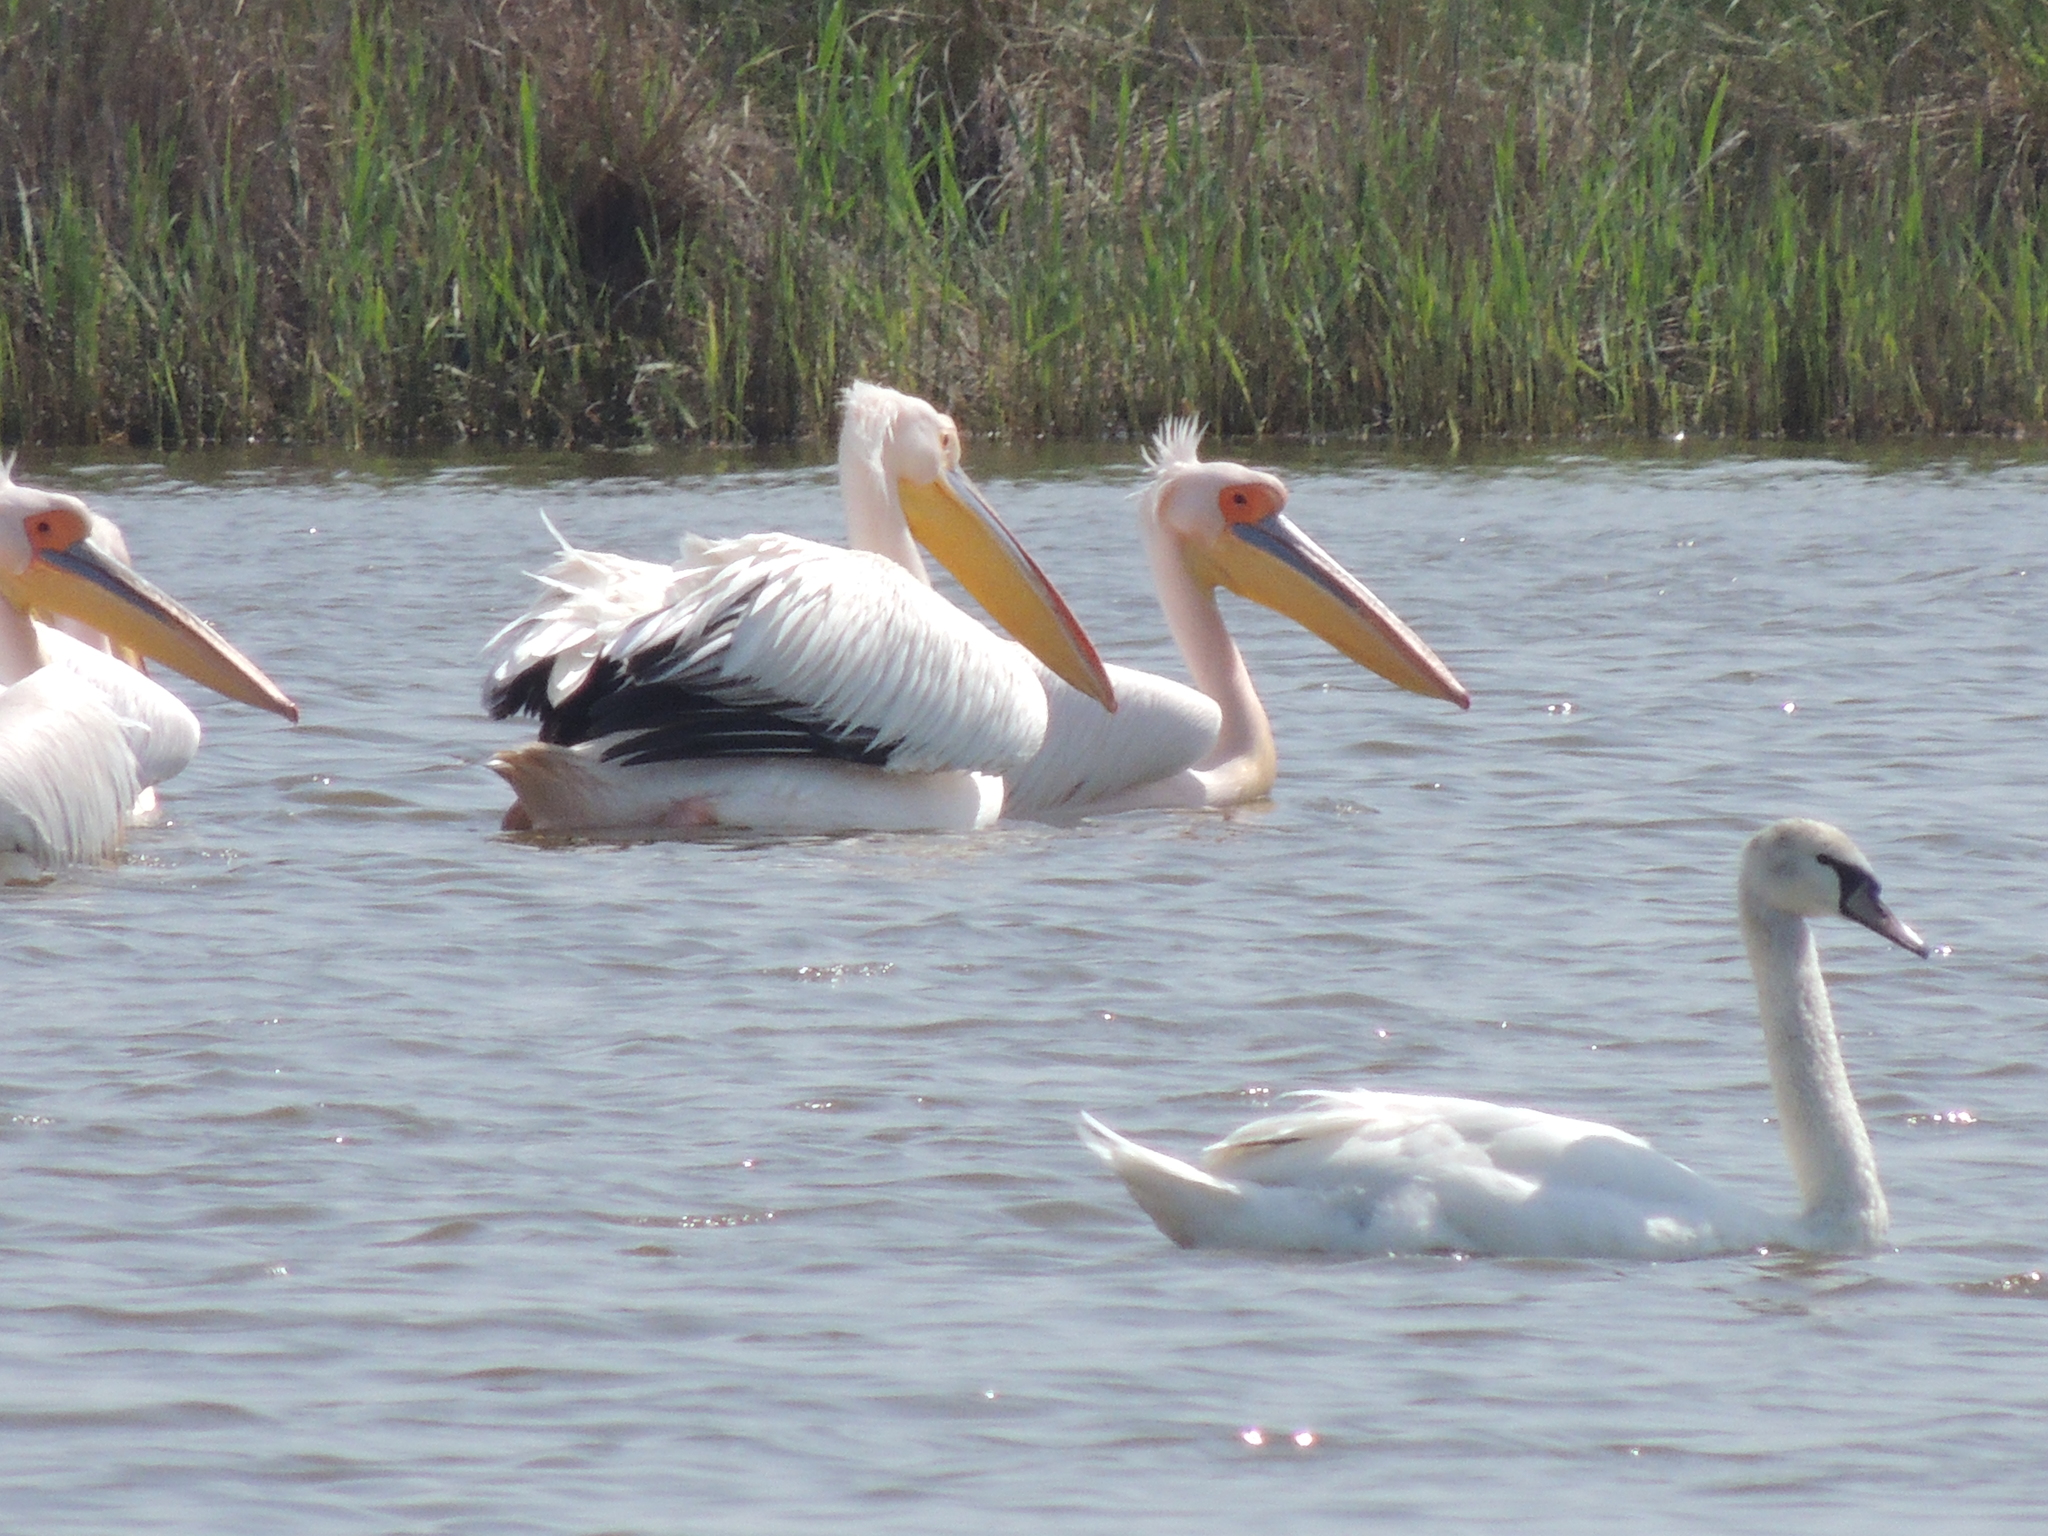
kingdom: Animalia
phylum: Chordata
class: Aves
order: Pelecaniformes
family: Pelecanidae
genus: Pelecanus
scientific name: Pelecanus onocrotalus
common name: Great white pelican
